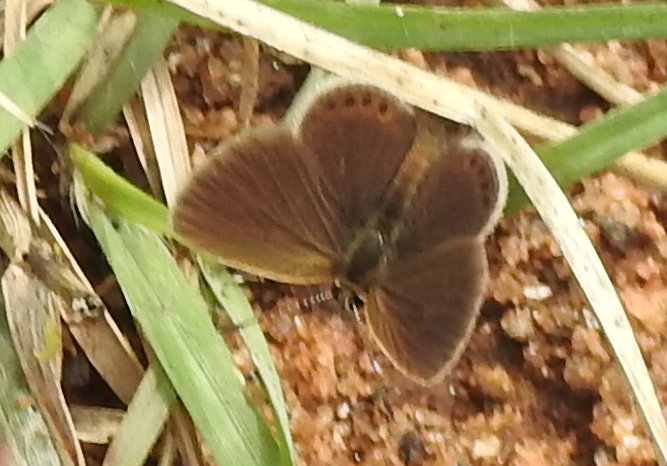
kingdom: Animalia
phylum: Arthropoda
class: Insecta
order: Lepidoptera
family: Lycaenidae
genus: Freyeria
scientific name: Freyeria putli
